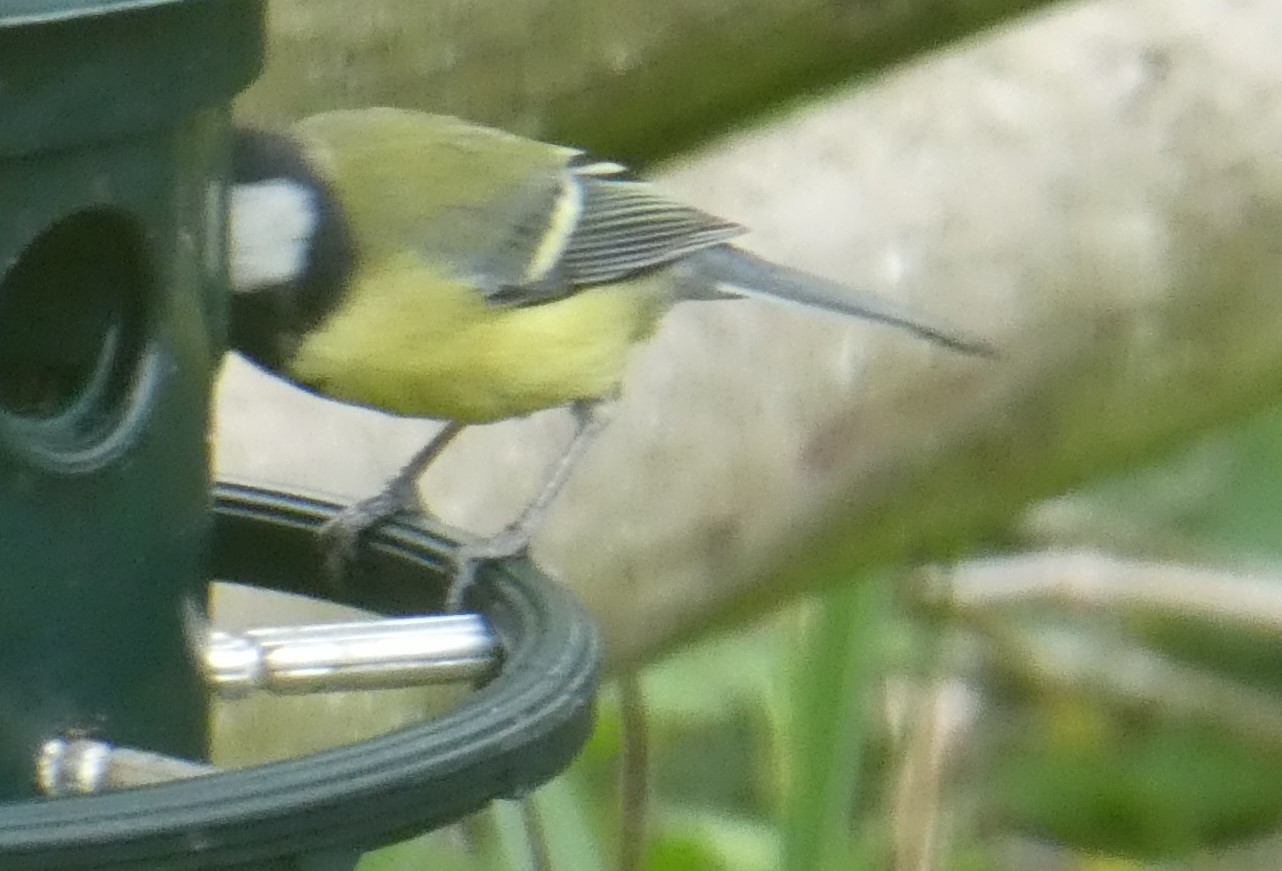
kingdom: Animalia
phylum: Chordata
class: Aves
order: Passeriformes
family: Paridae
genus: Parus
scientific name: Parus major
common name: Great tit
